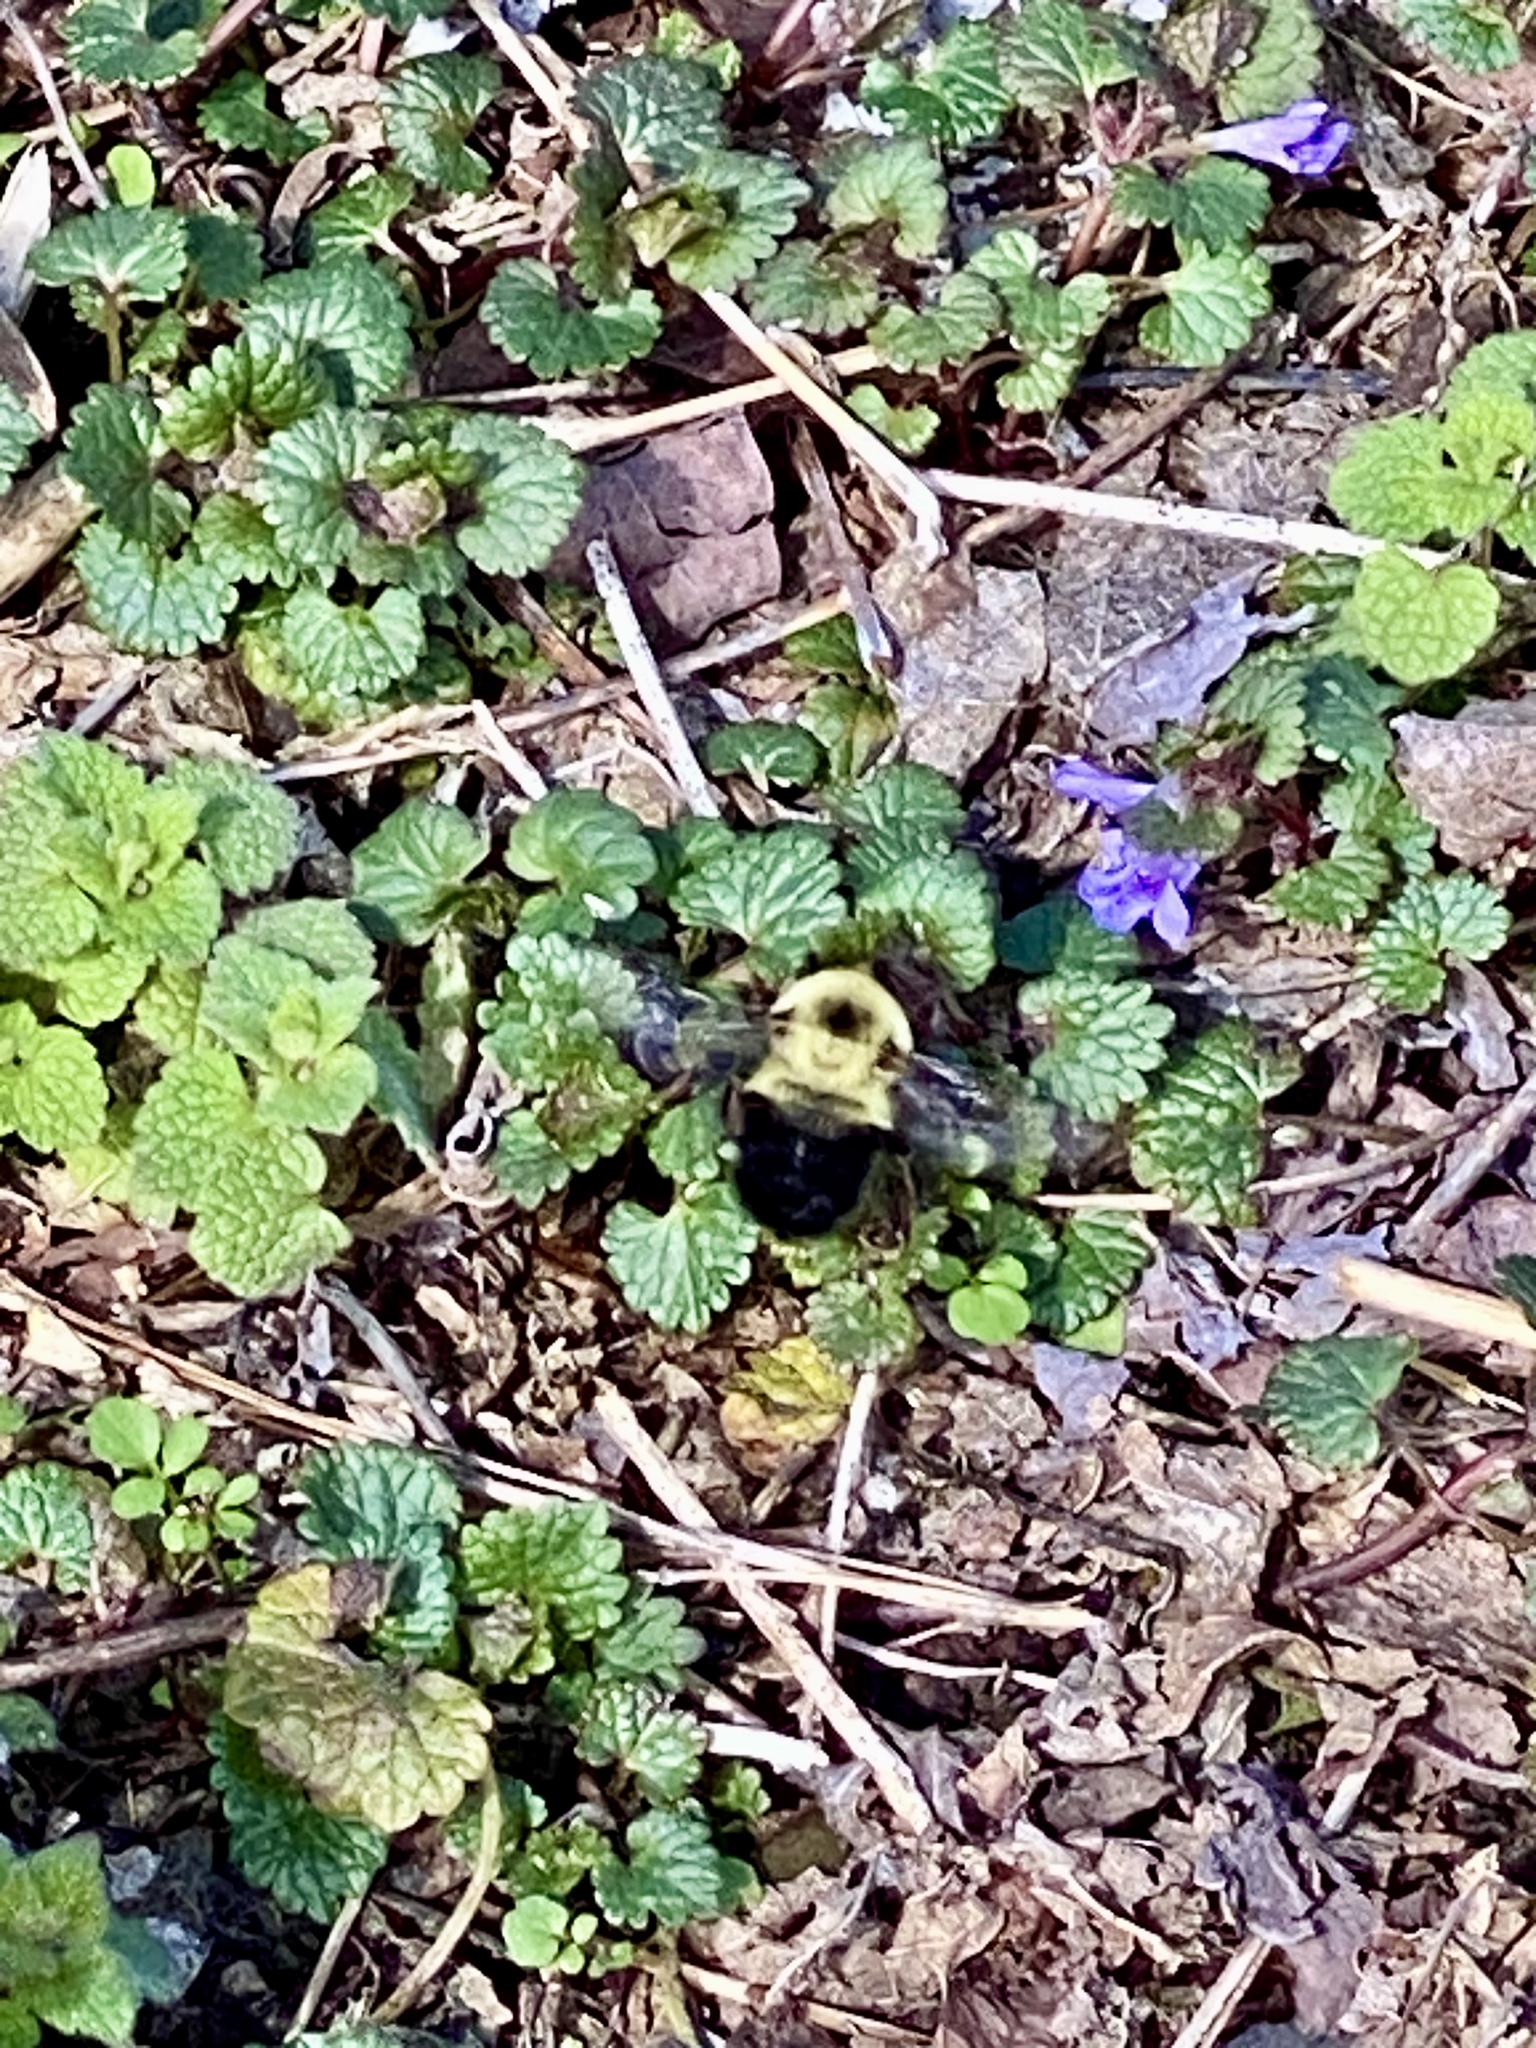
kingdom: Animalia
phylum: Arthropoda
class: Insecta
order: Hymenoptera
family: Apidae
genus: Bombus
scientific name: Bombus bimaculatus
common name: Two-spotted bumble bee
